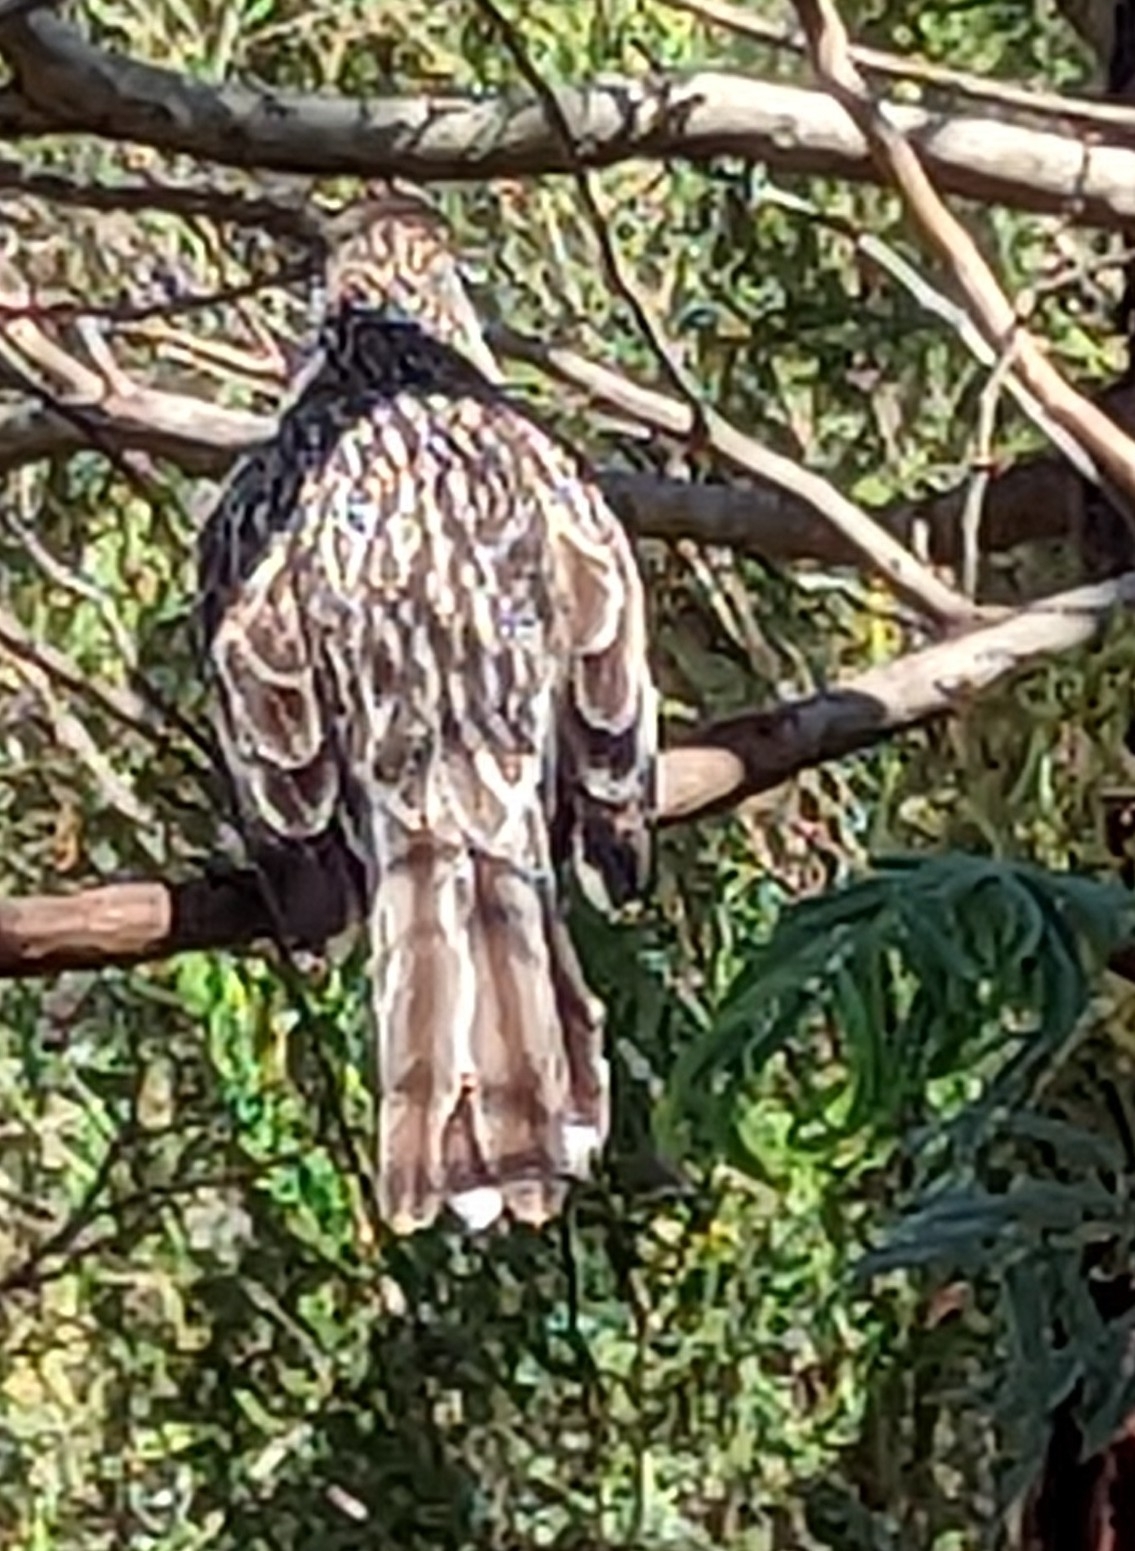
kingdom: Animalia
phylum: Chordata
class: Aves
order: Passeriformes
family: Meliphagidae
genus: Anthochaera
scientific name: Anthochaera carunculata
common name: Red wattlebird
